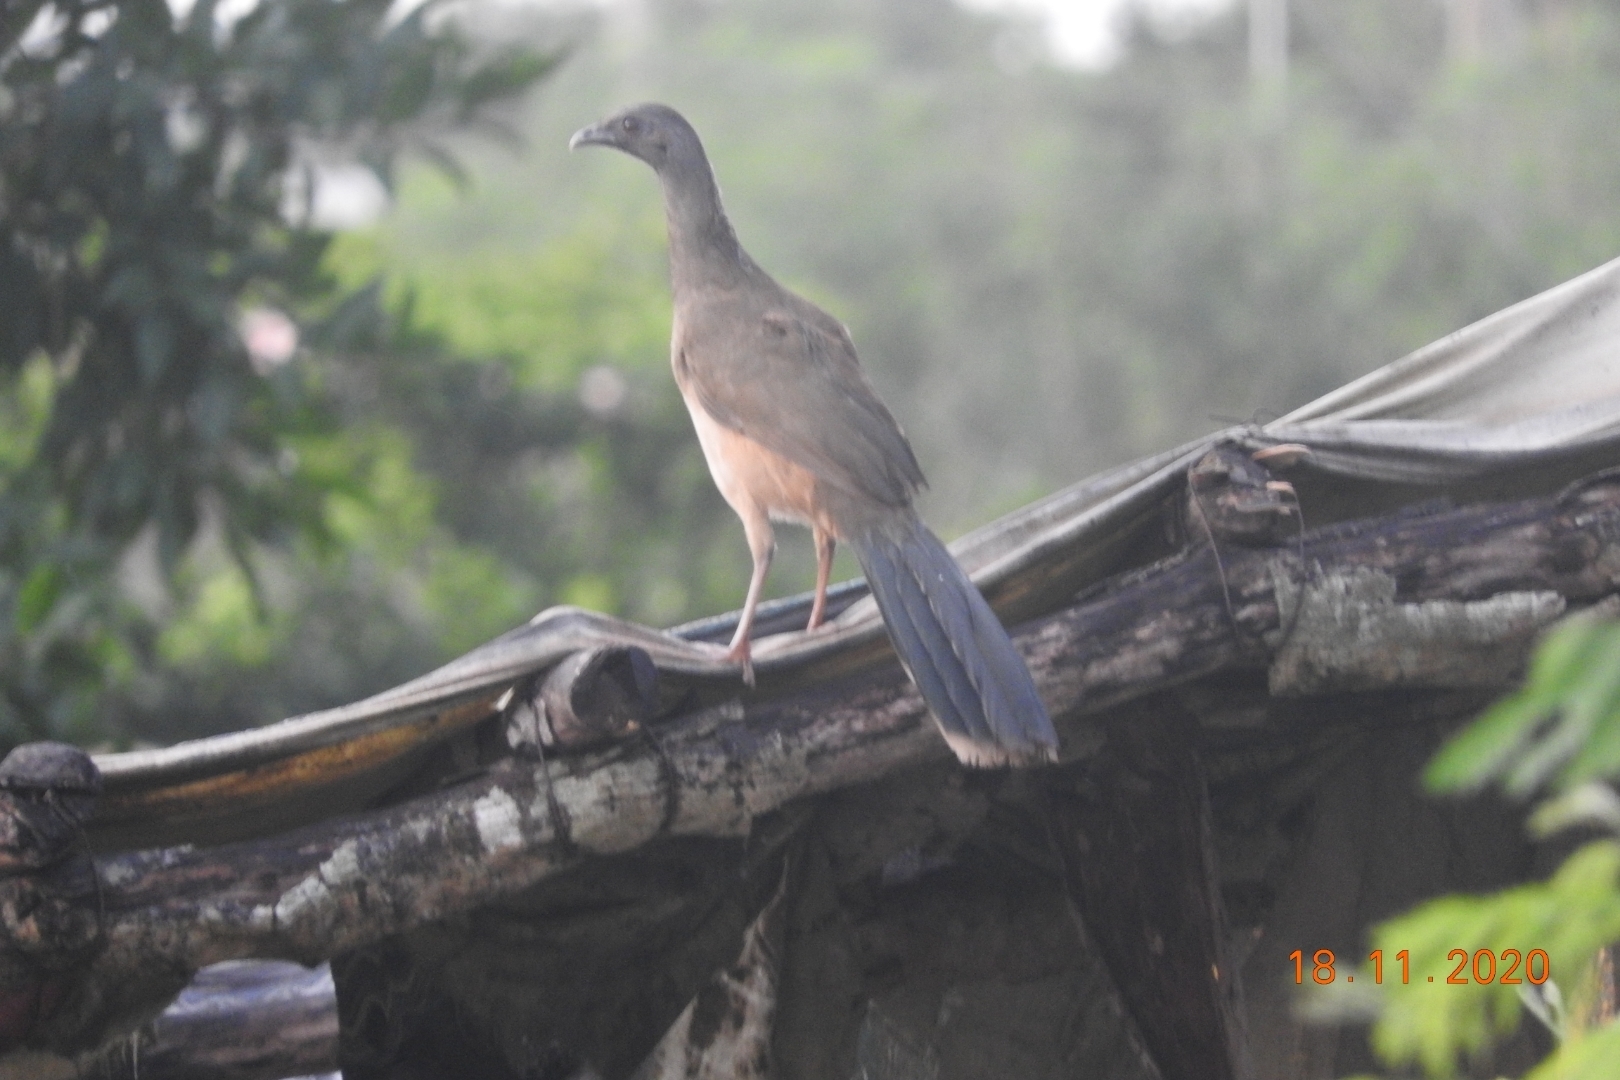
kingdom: Animalia
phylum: Chordata
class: Aves
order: Galliformes
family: Cracidae
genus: Ortalis
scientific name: Ortalis vetula
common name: Plain chachalaca
